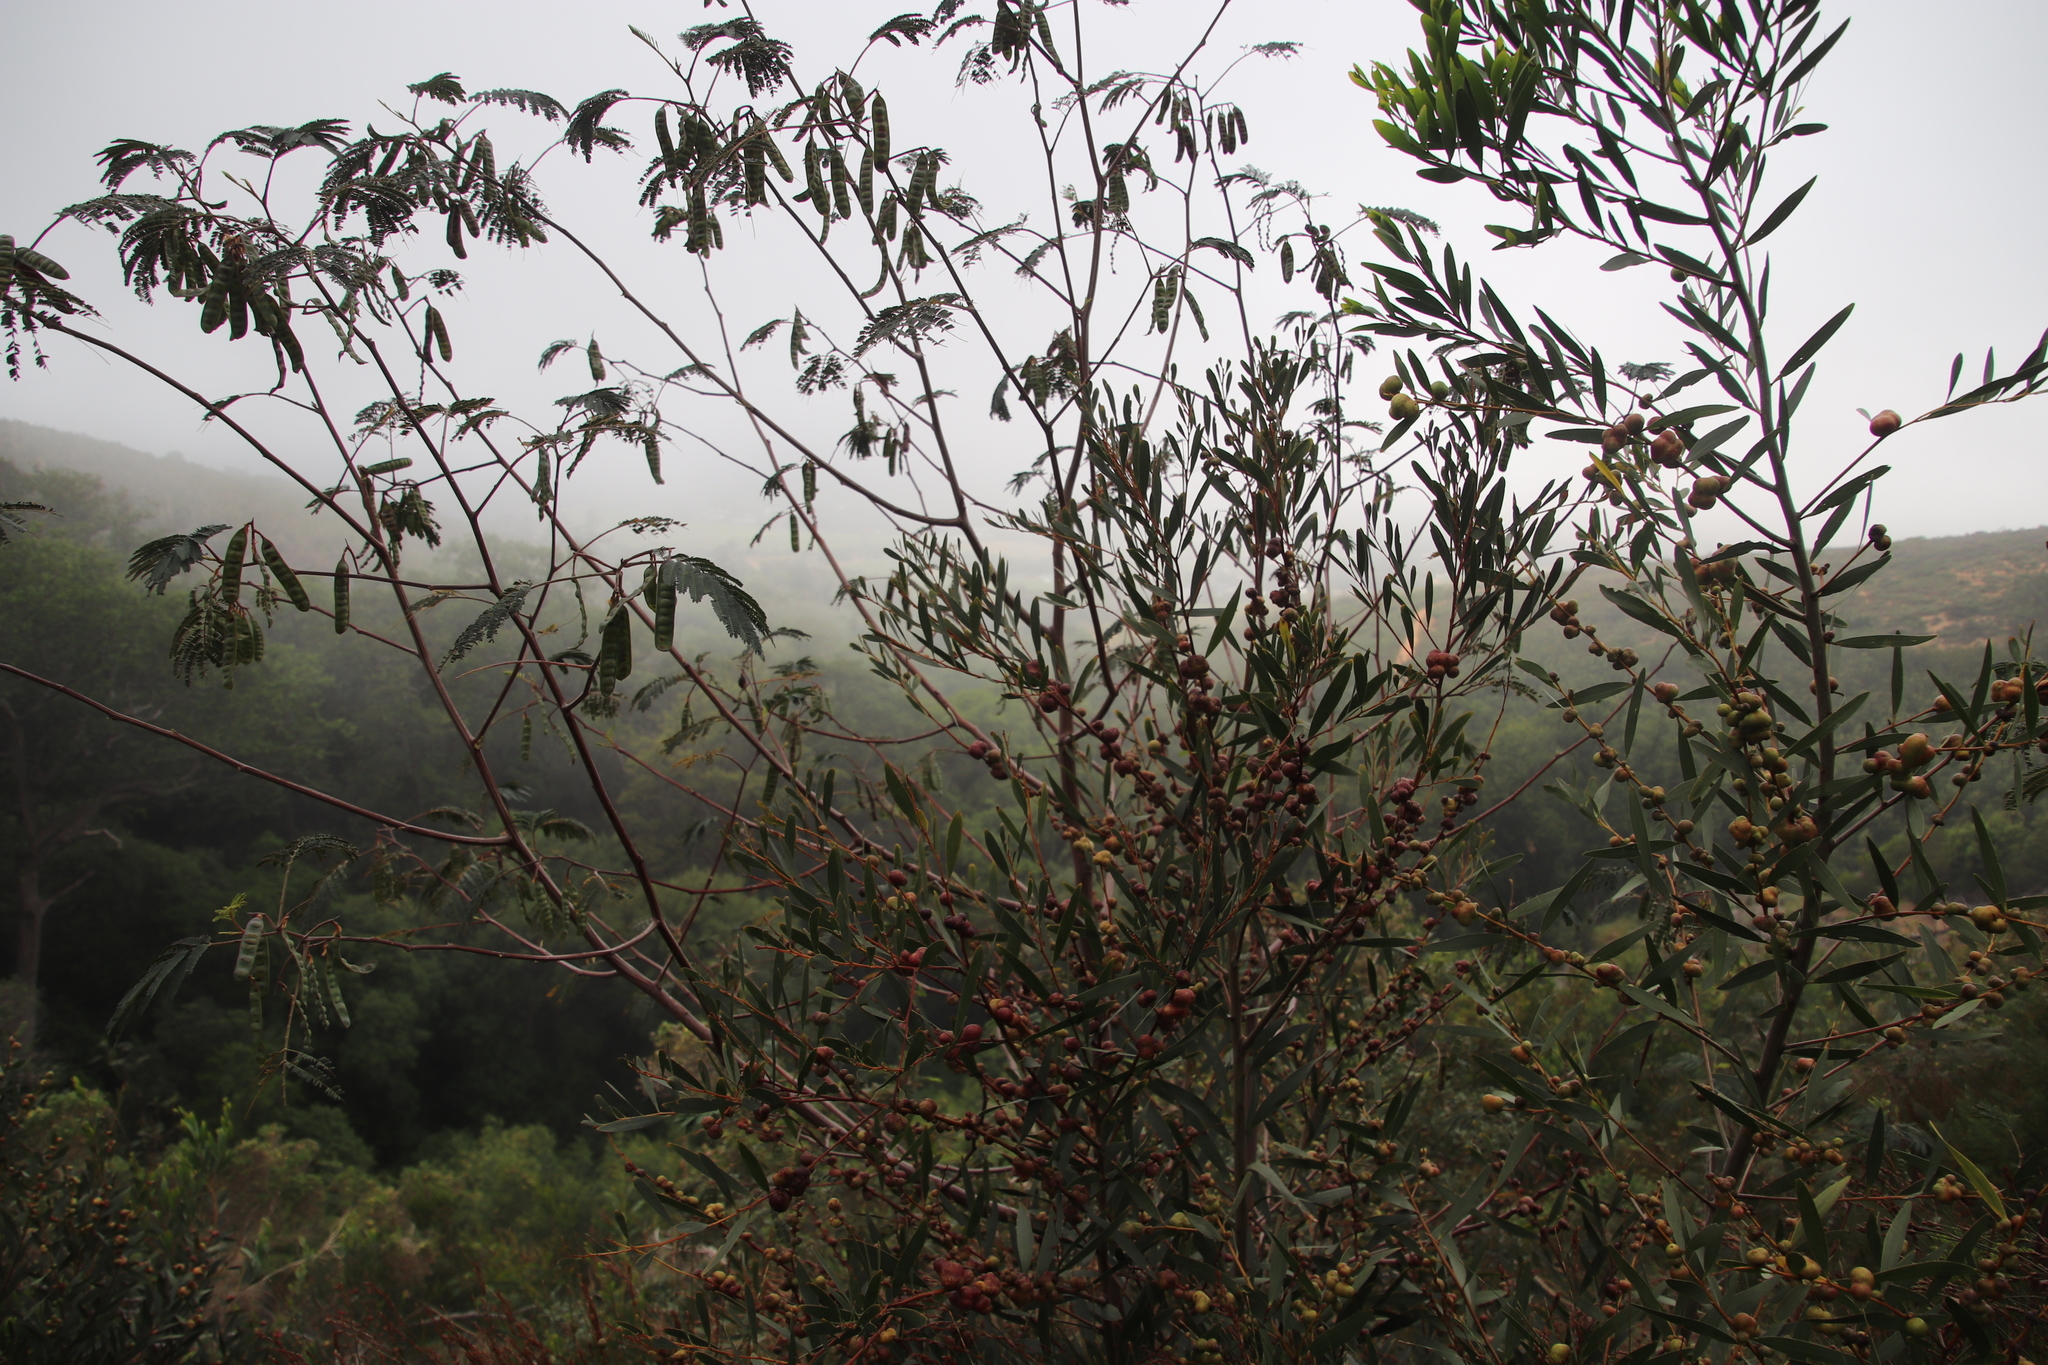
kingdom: Plantae
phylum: Tracheophyta
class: Magnoliopsida
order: Fabales
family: Fabaceae
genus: Acacia
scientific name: Acacia longifolia
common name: Sydney golden wattle
